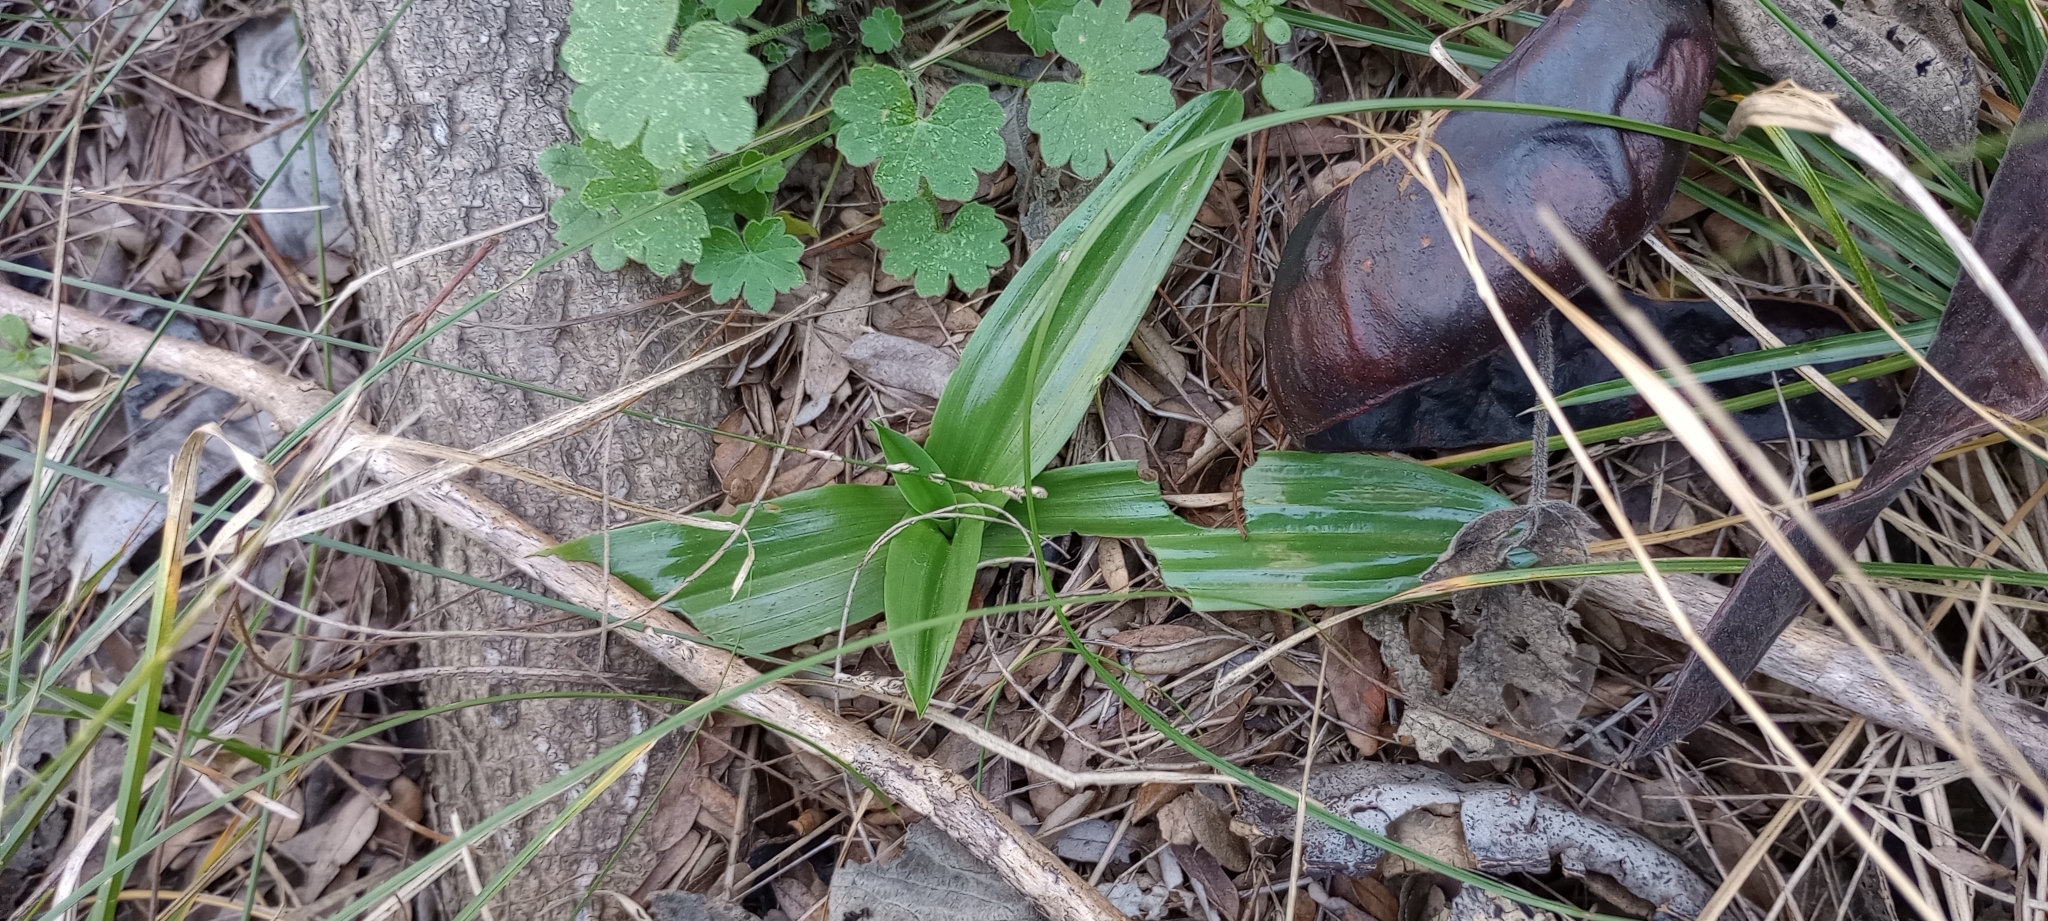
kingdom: Plantae
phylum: Tracheophyta
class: Liliopsida
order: Asparagales
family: Orchidaceae
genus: Chloraea
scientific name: Chloraea membranacea
